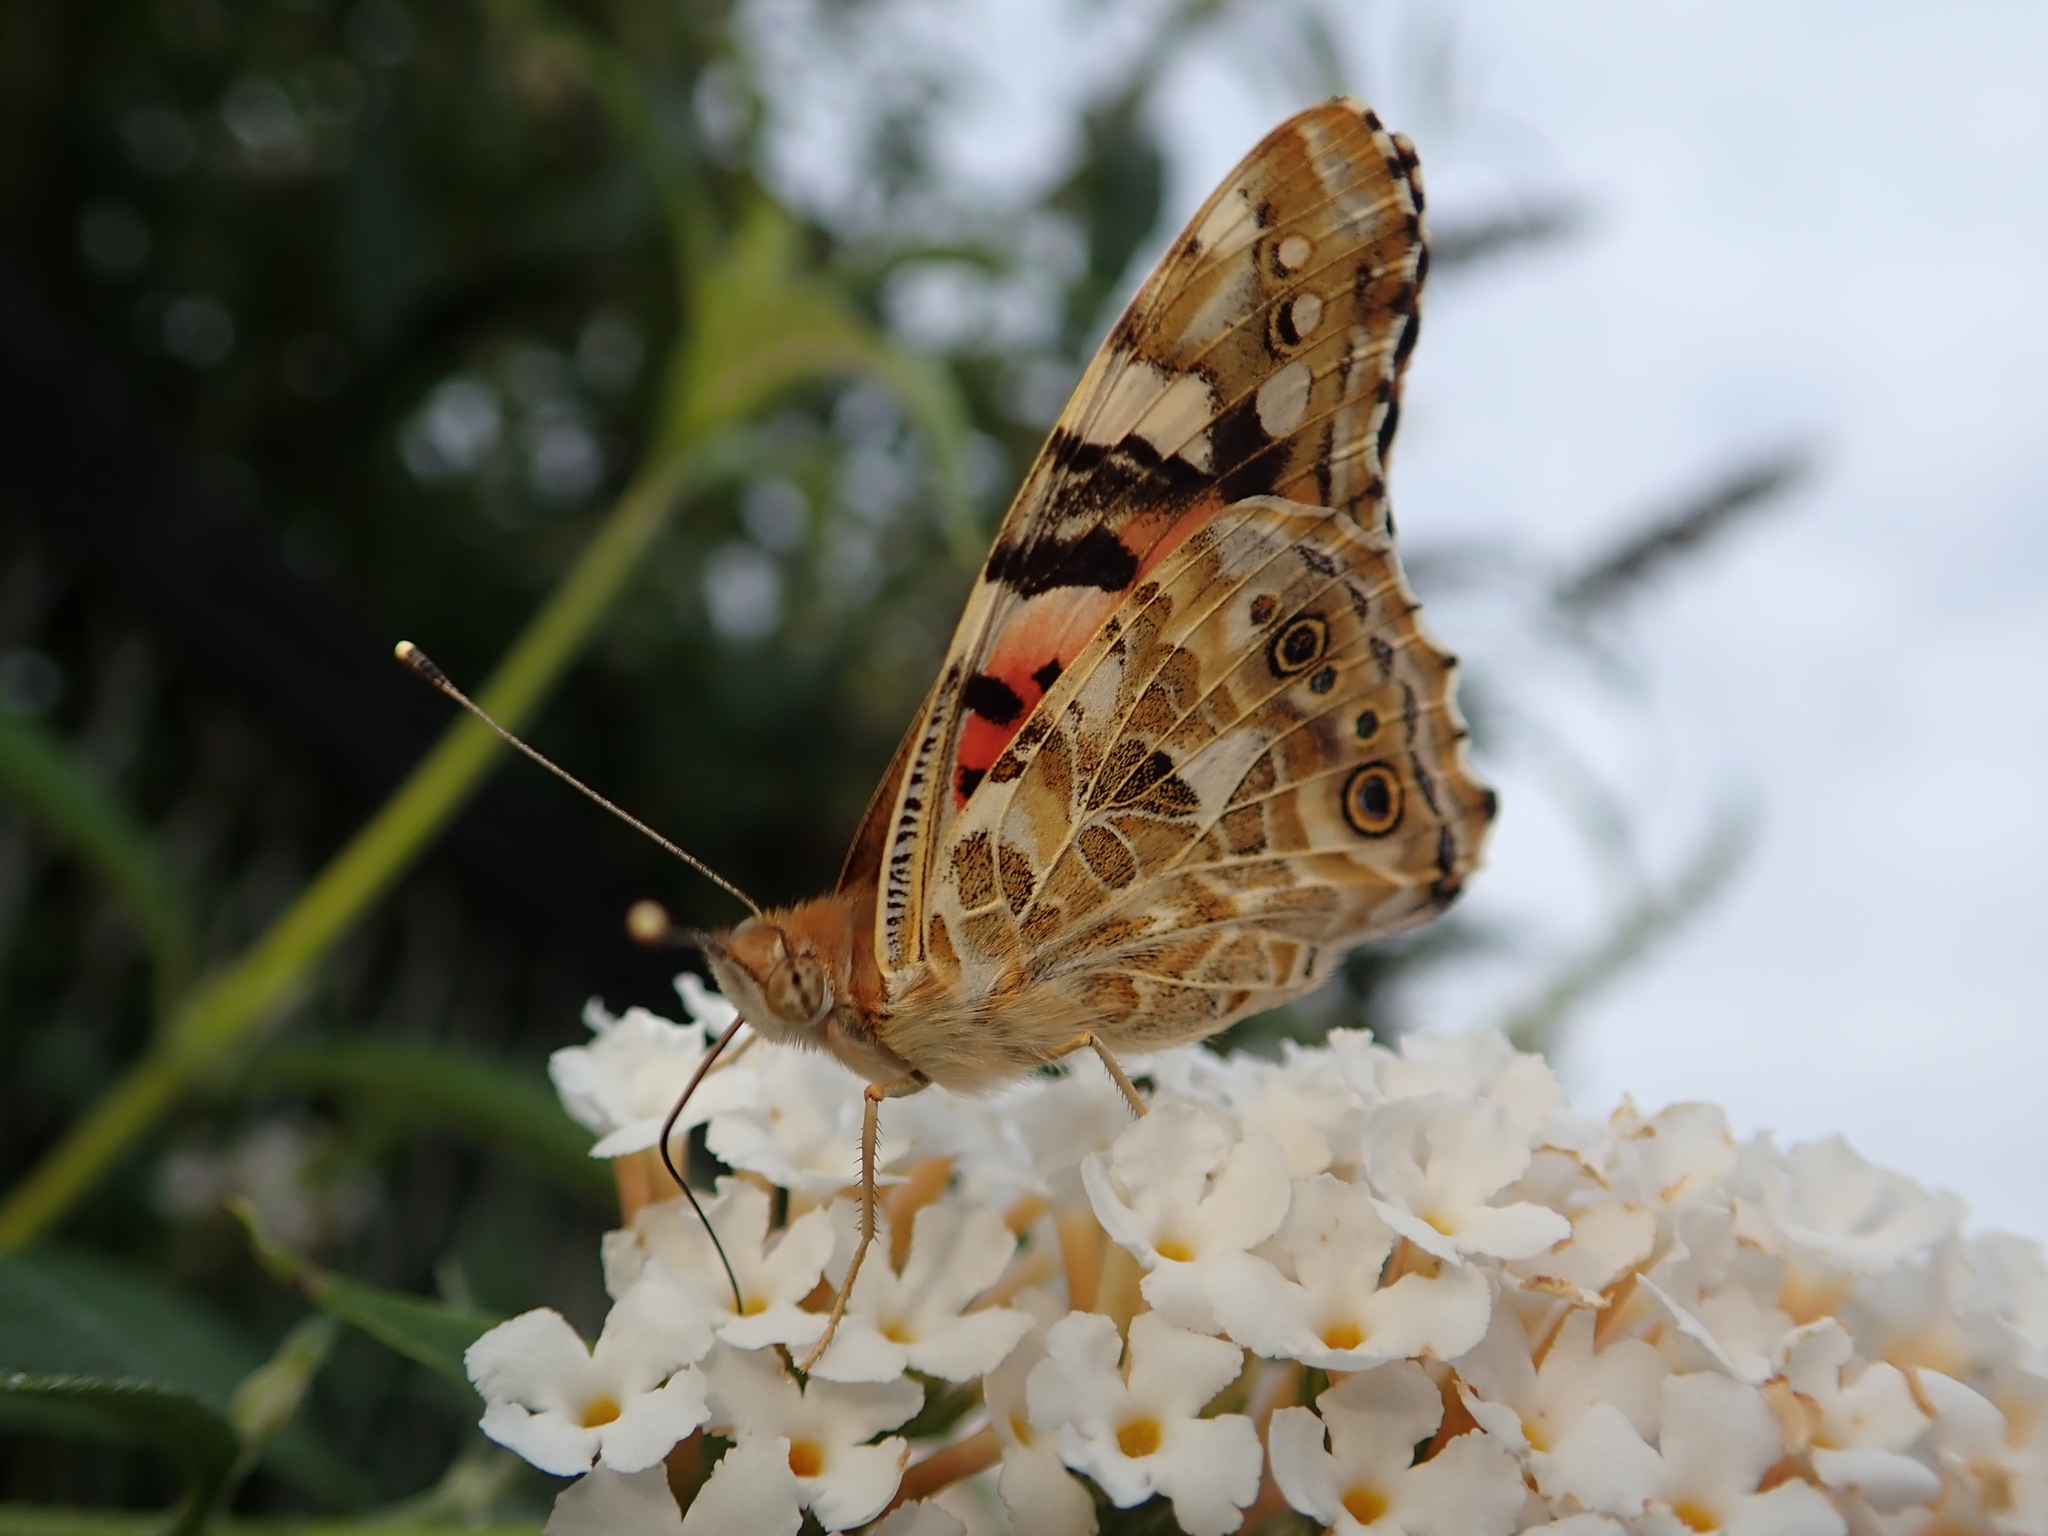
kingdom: Animalia
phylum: Arthropoda
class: Insecta
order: Lepidoptera
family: Nymphalidae
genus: Vanessa
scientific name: Vanessa cardui
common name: Painted lady
